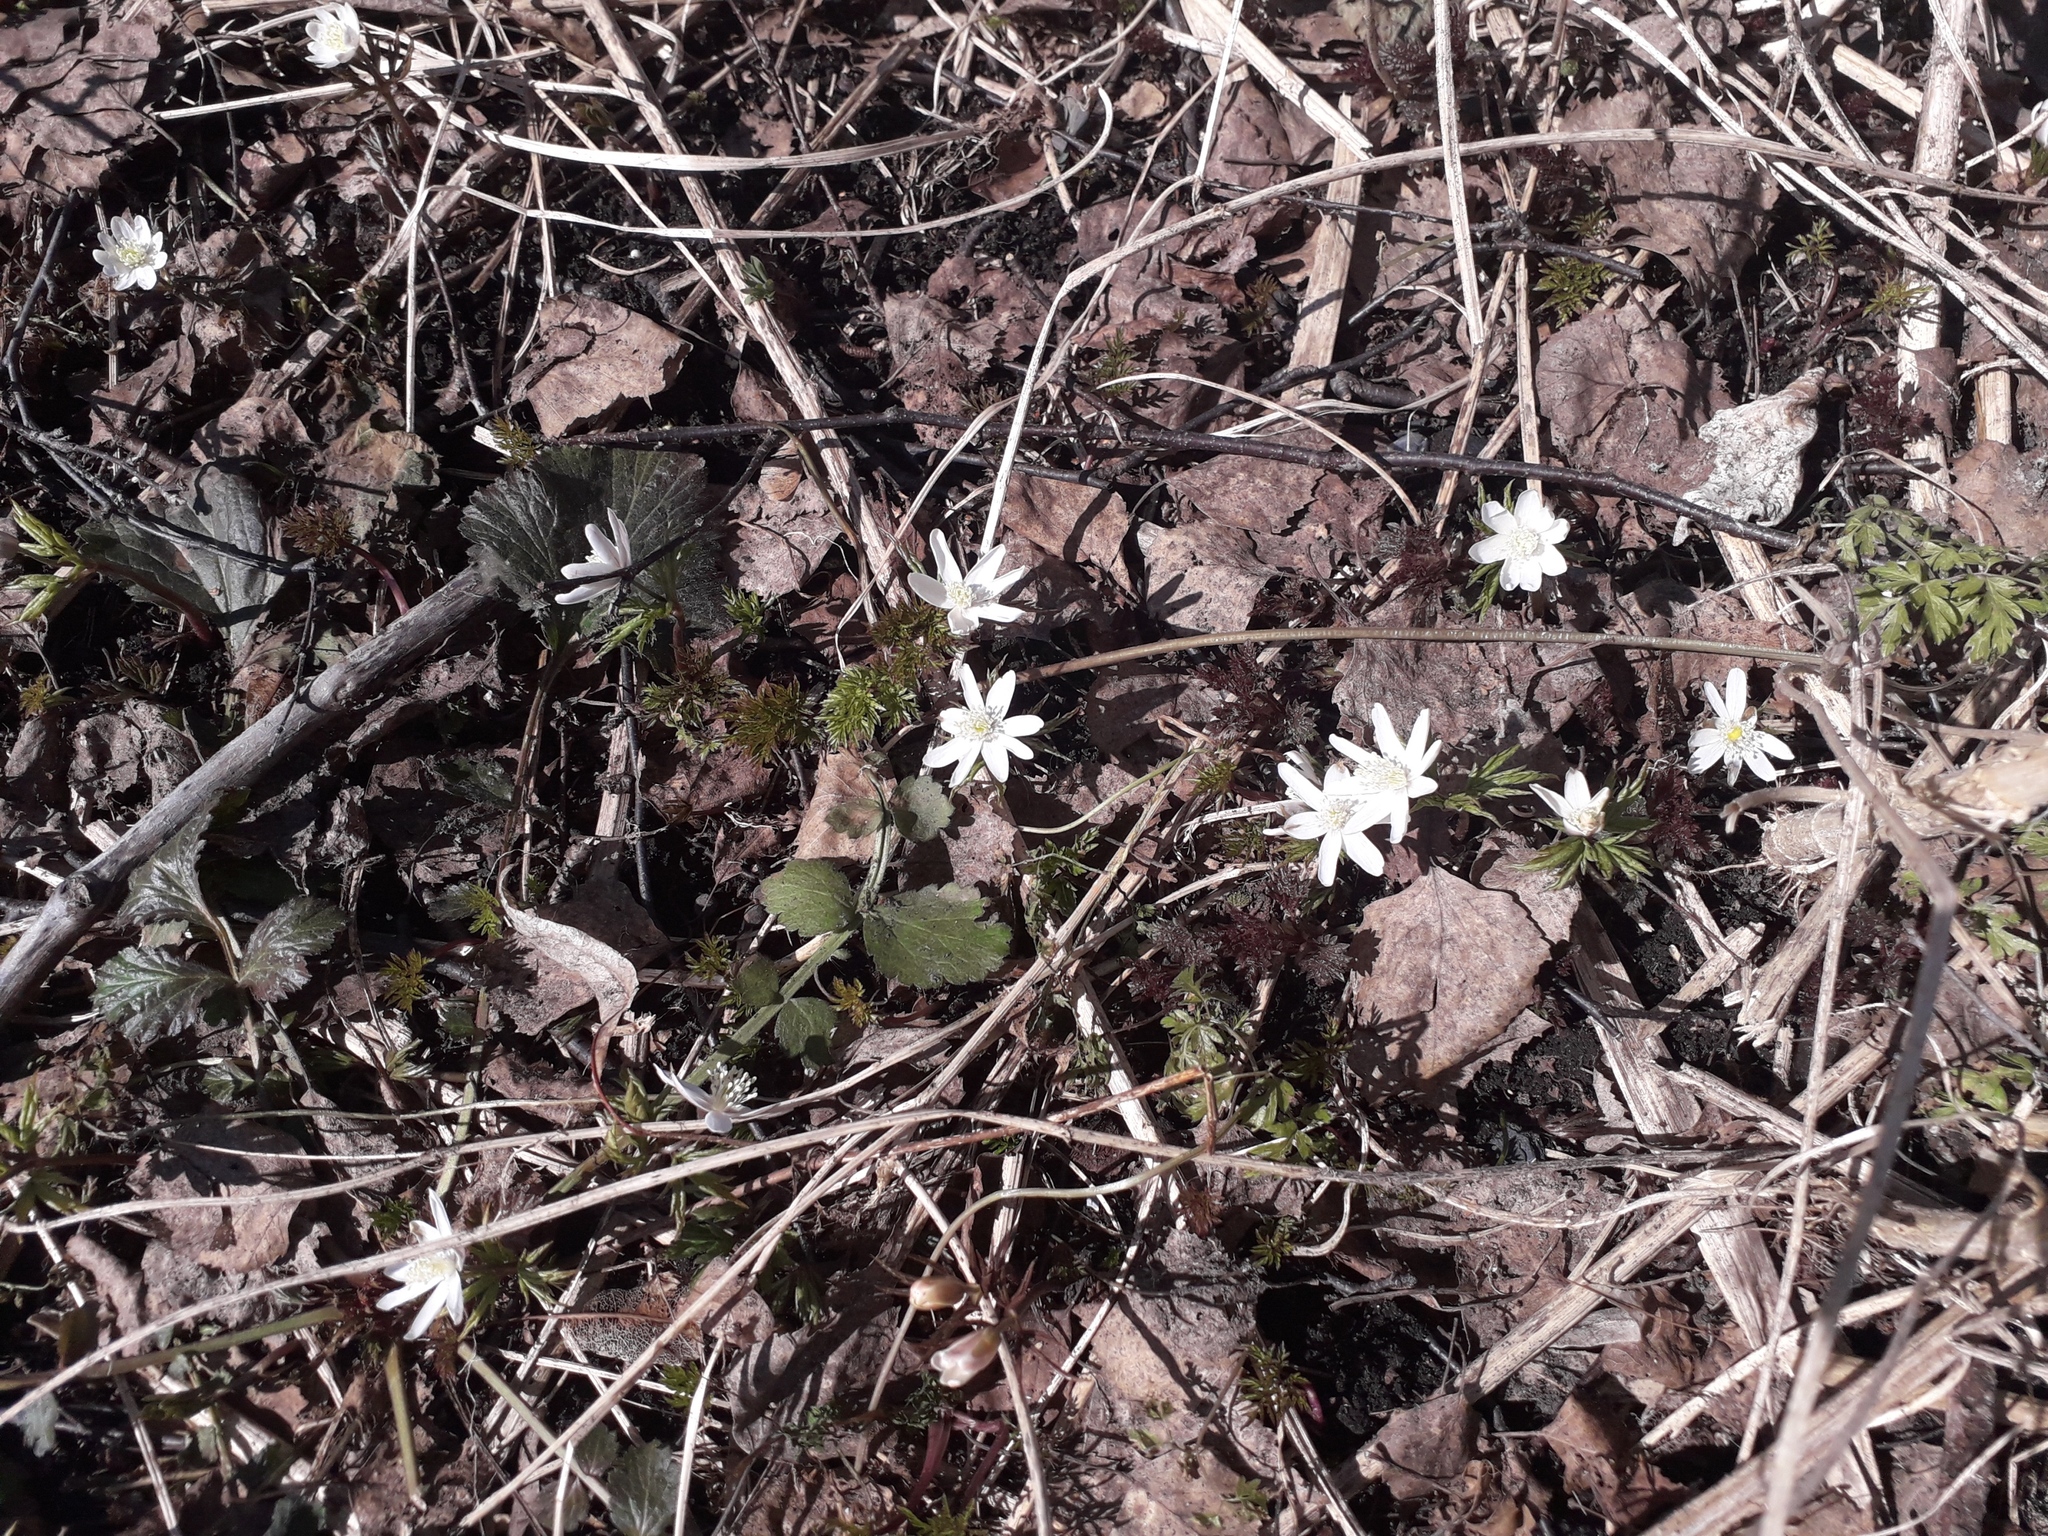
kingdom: Plantae
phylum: Tracheophyta
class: Magnoliopsida
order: Ranunculales
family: Ranunculaceae
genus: Anemone
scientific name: Anemone altaica
